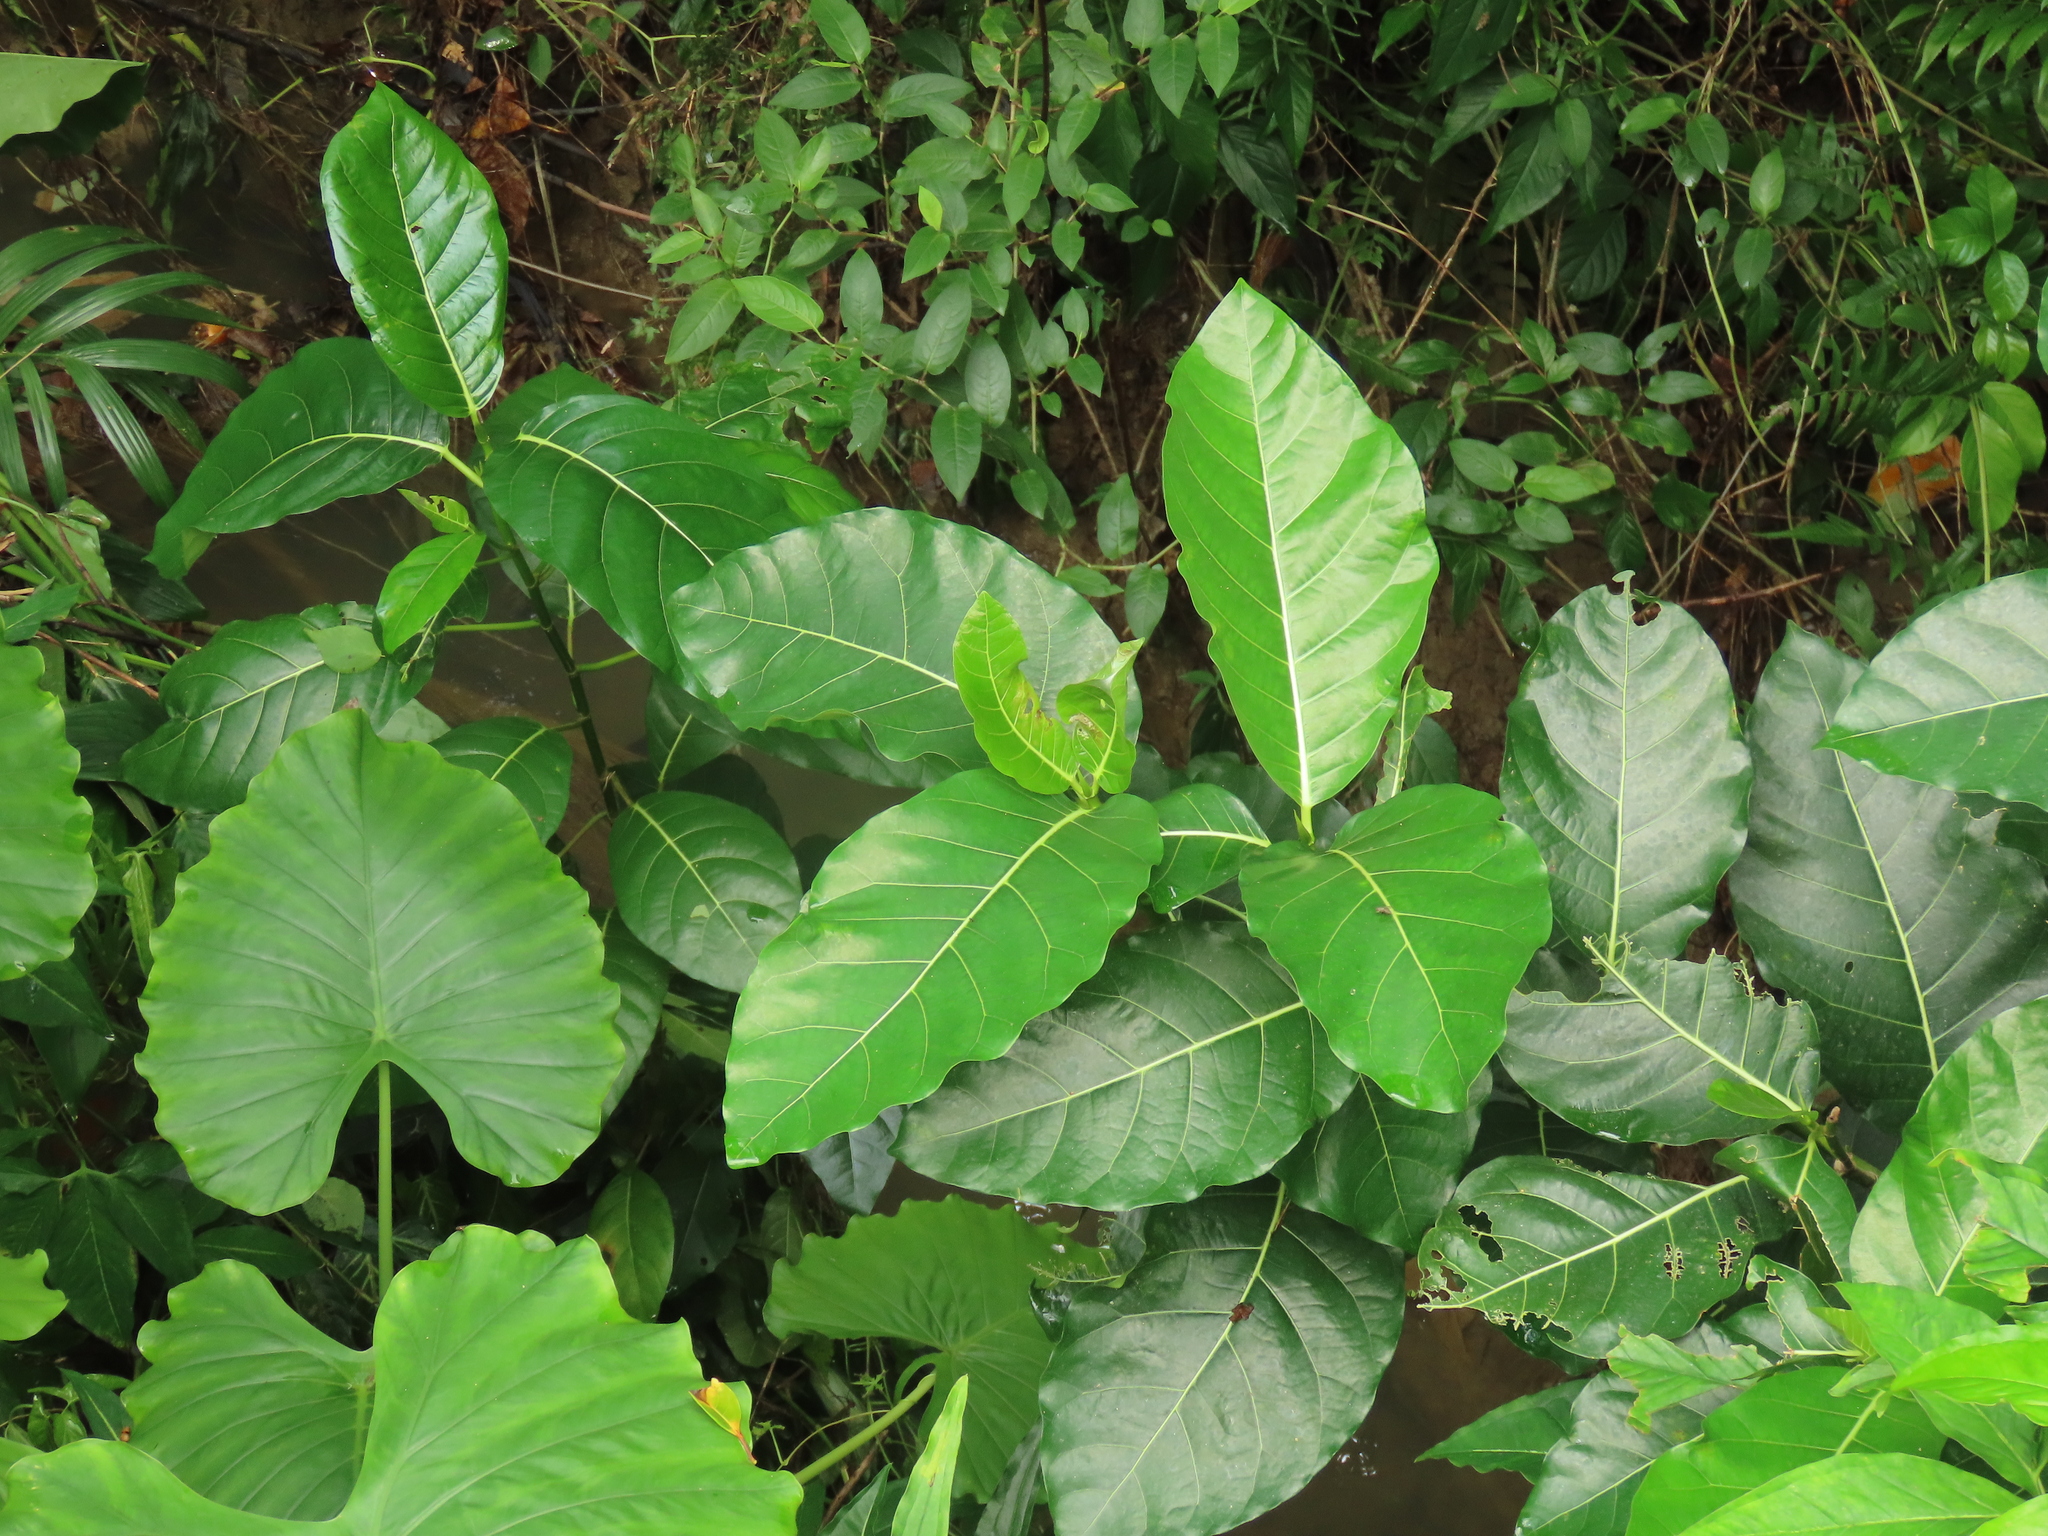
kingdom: Plantae
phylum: Tracheophyta
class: Magnoliopsida
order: Rosales
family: Moraceae
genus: Ficus
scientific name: Ficus septica
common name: Septic fig
